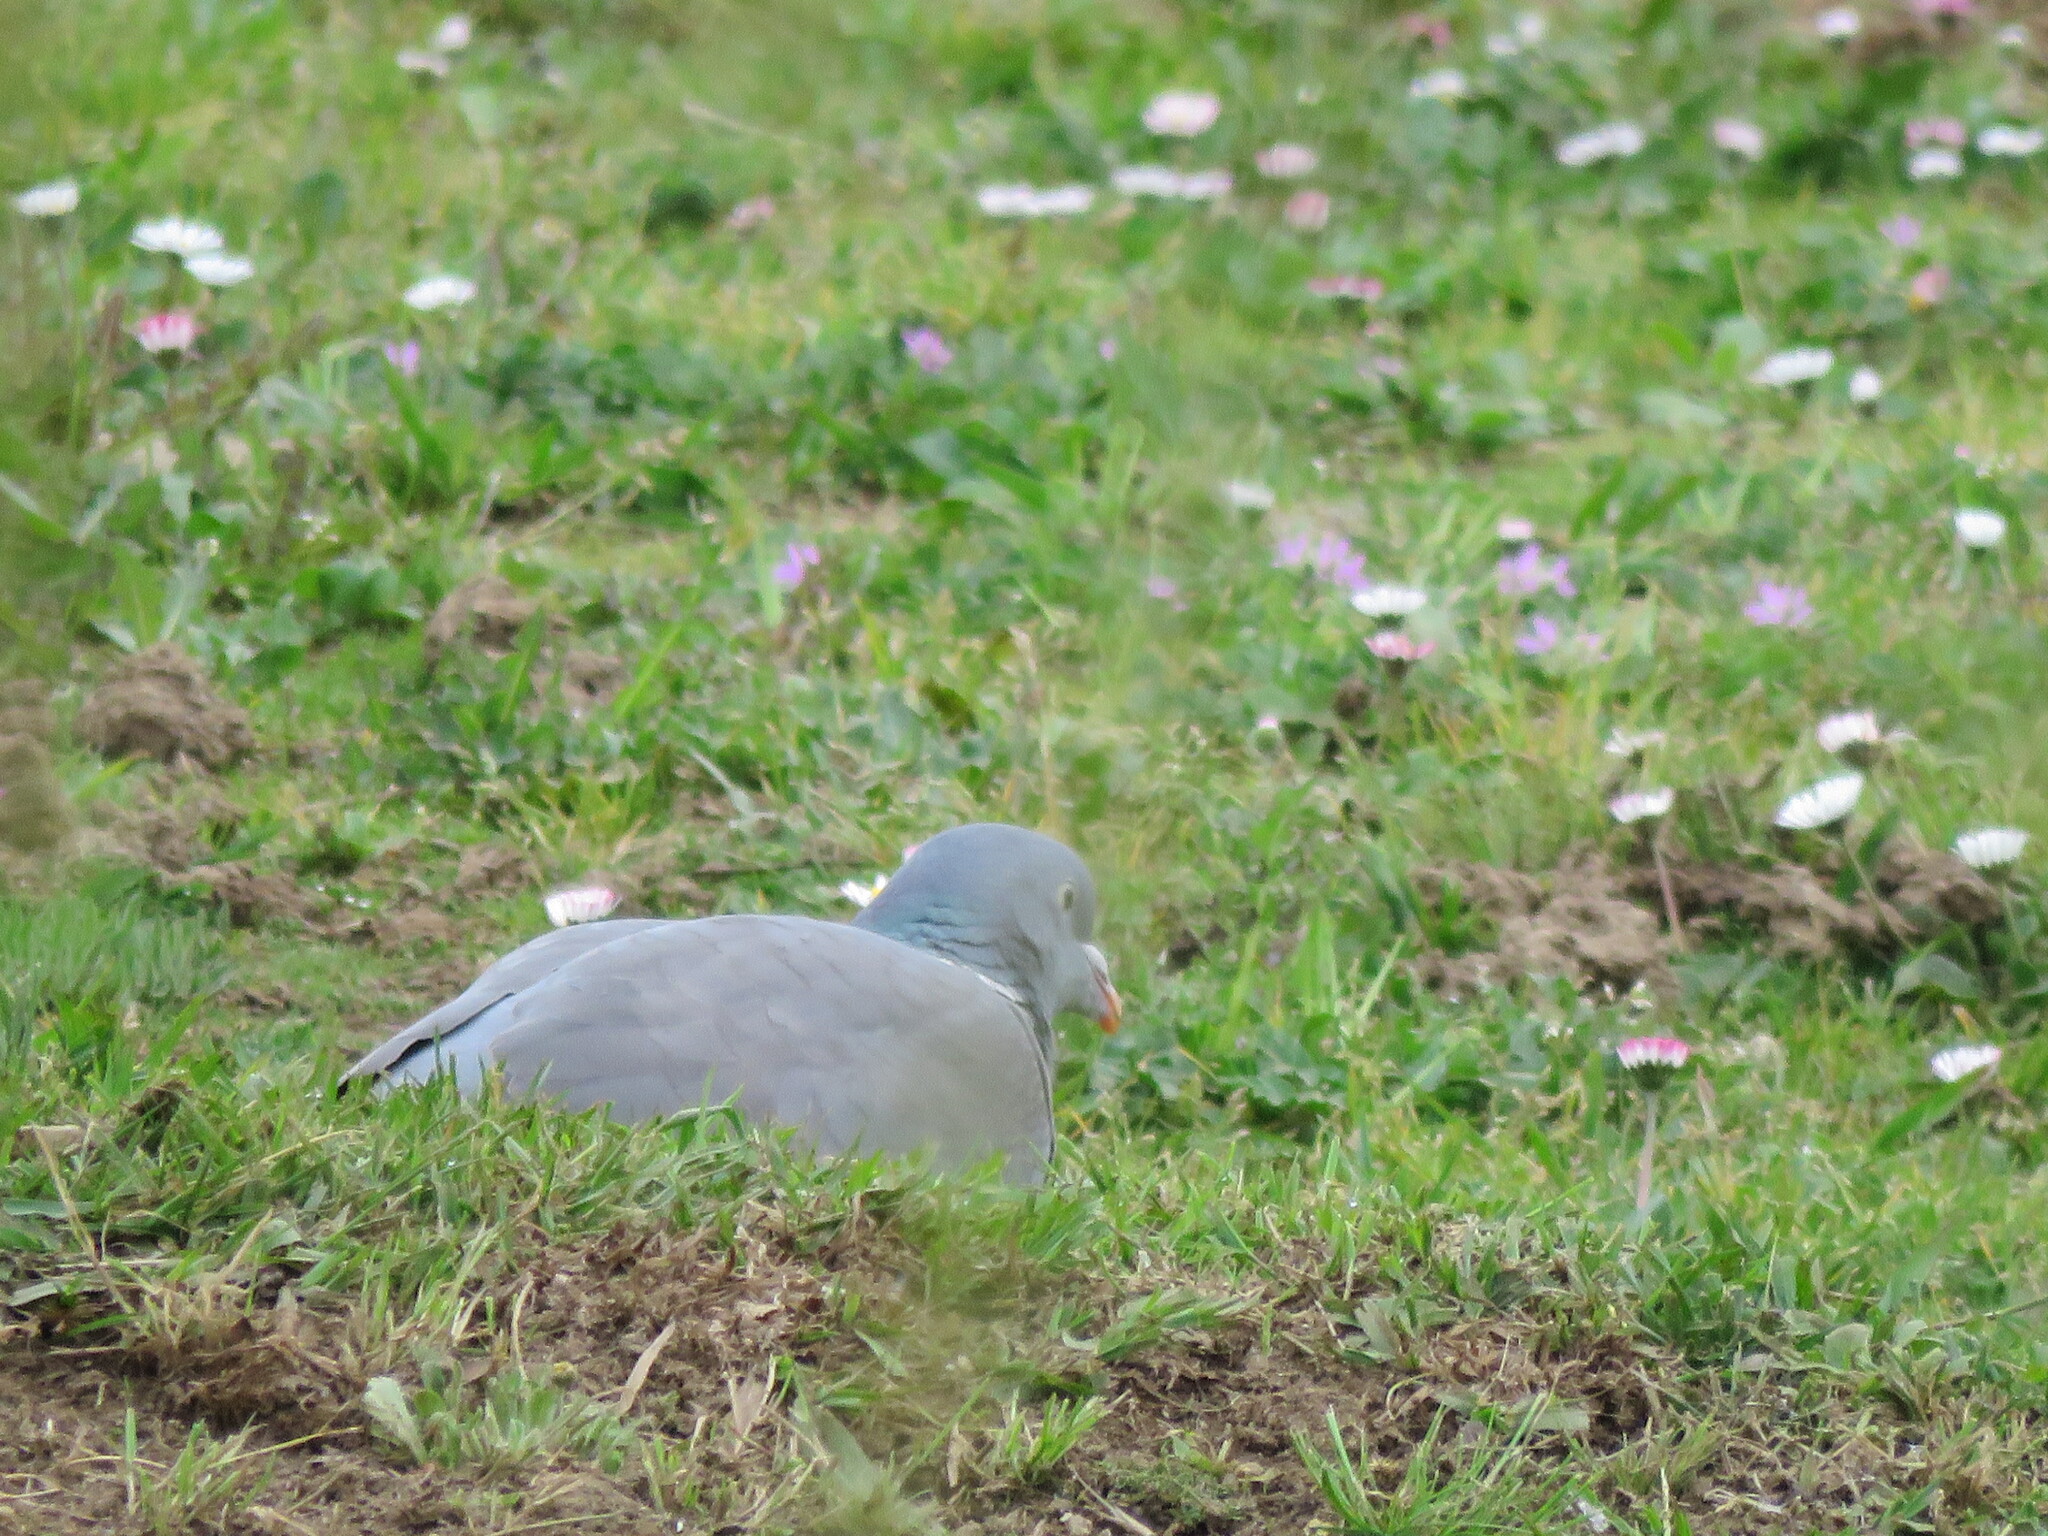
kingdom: Animalia
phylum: Chordata
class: Aves
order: Columbiformes
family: Columbidae
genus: Columba
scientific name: Columba palumbus
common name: Common wood pigeon
